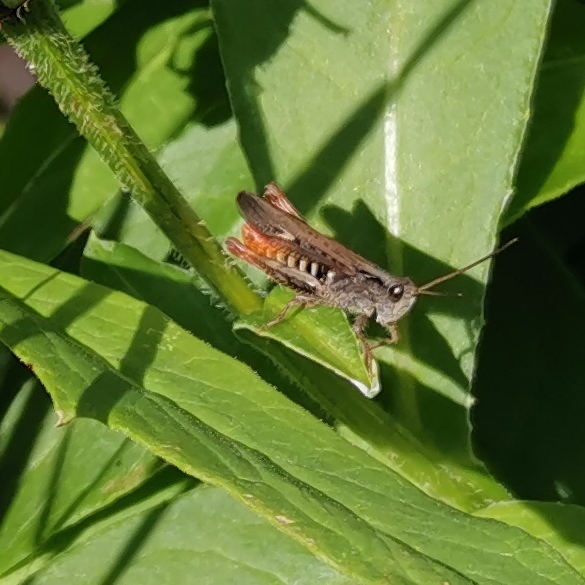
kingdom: Animalia
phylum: Arthropoda
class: Insecta
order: Orthoptera
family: Acrididae
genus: Chorthippus
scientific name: Chorthippus brunneus
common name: Field grasshopper
